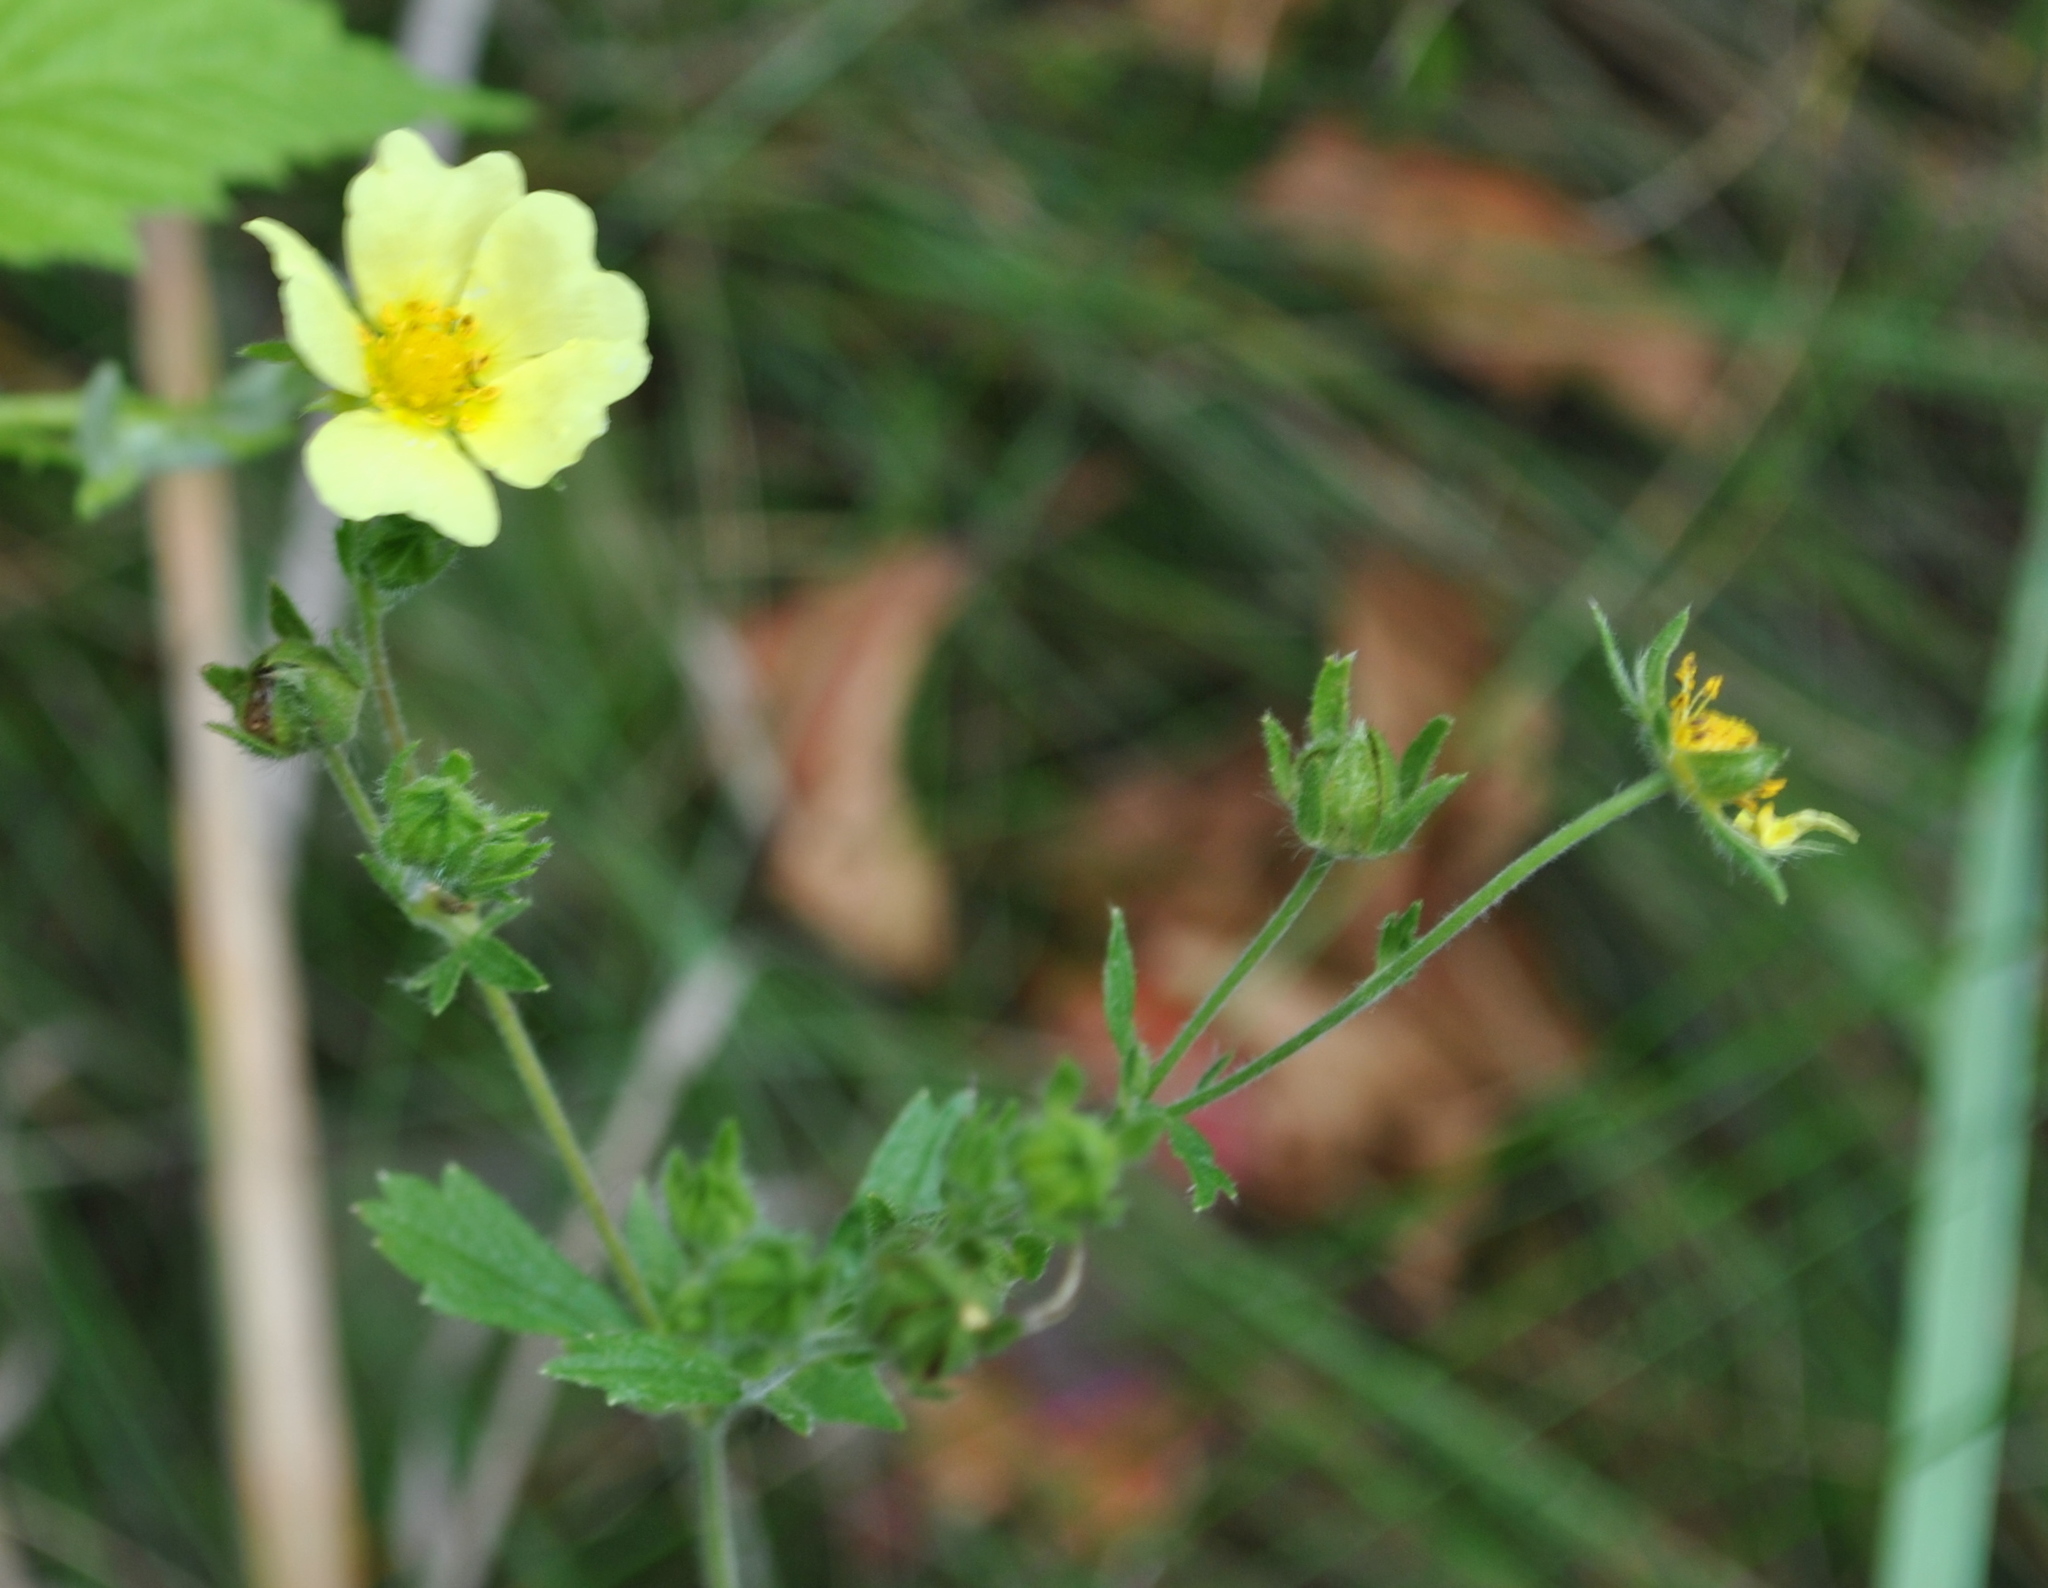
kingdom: Plantae
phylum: Tracheophyta
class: Magnoliopsida
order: Rosales
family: Rosaceae
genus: Potentilla
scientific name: Potentilla recta
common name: Sulphur cinquefoil
